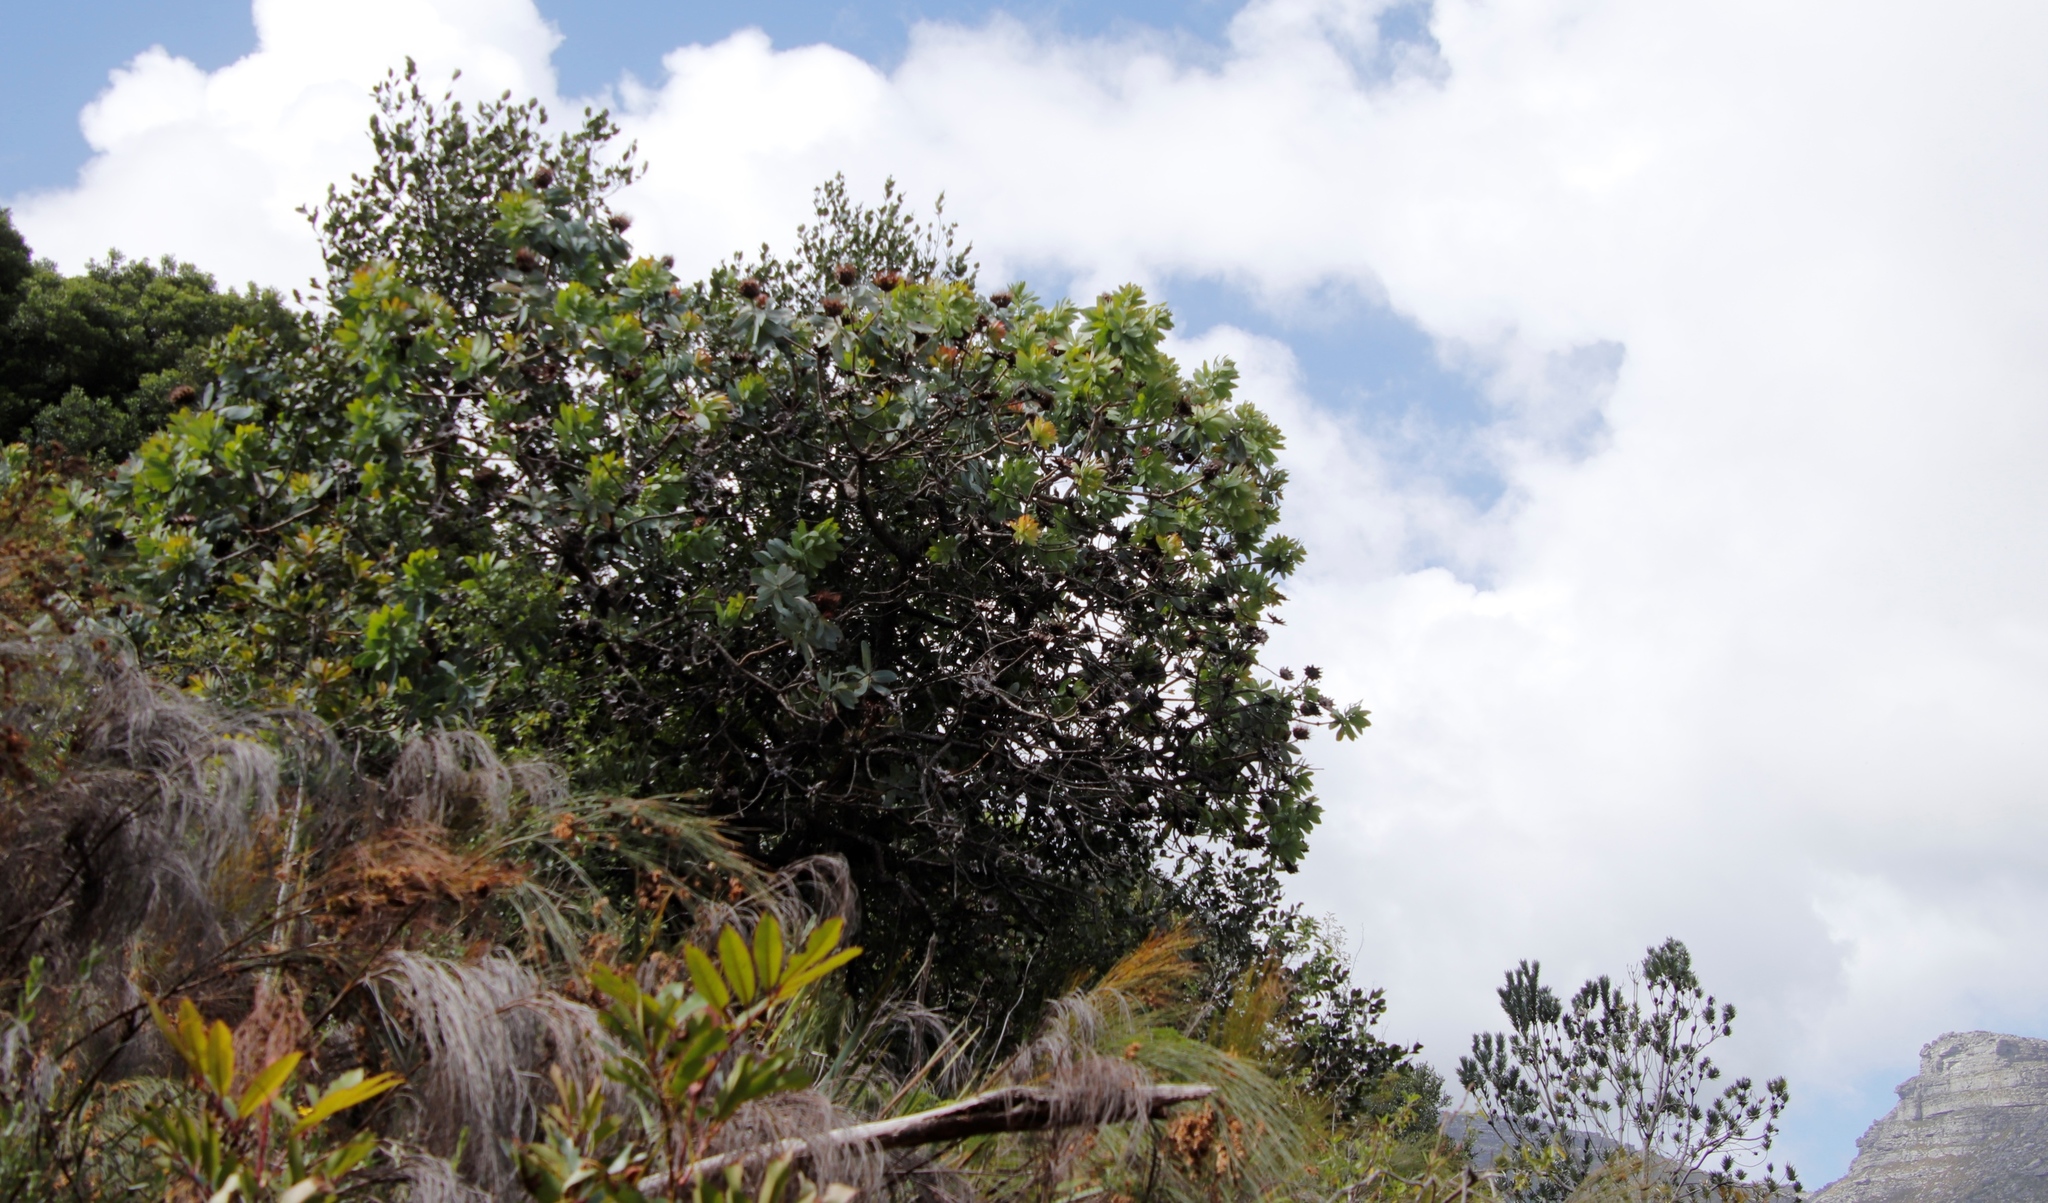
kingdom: Plantae
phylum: Tracheophyta
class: Magnoliopsida
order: Proteales
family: Proteaceae
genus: Protea
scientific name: Protea nitida
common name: Tree protea
